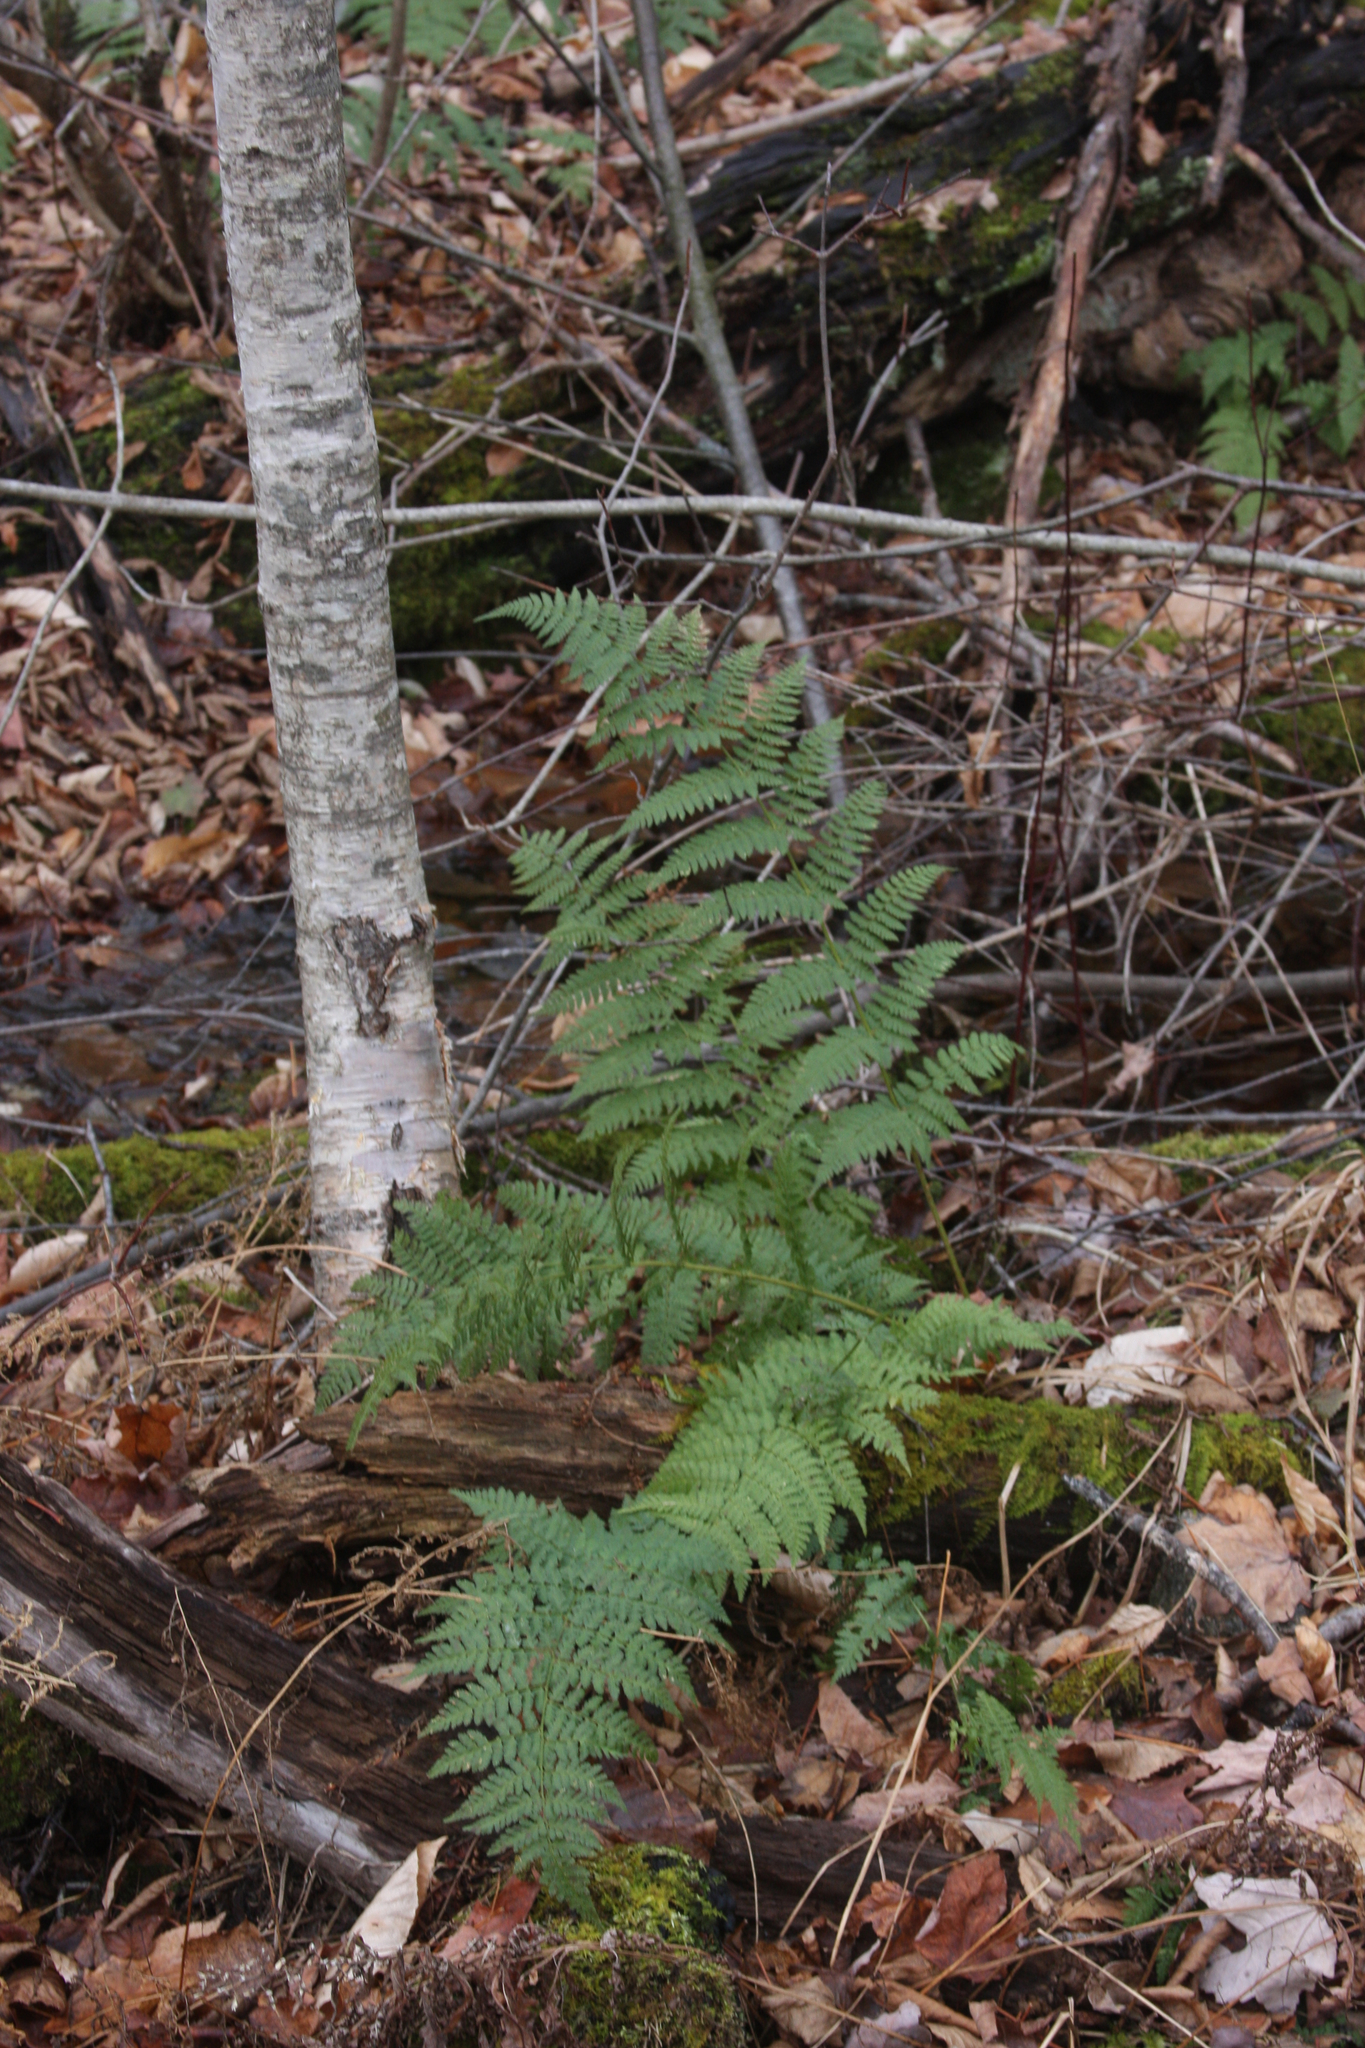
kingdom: Plantae
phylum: Tracheophyta
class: Polypodiopsida
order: Polypodiales
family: Dryopteridaceae
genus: Dryopteris
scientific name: Dryopteris intermedia
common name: Evergreen wood fern
